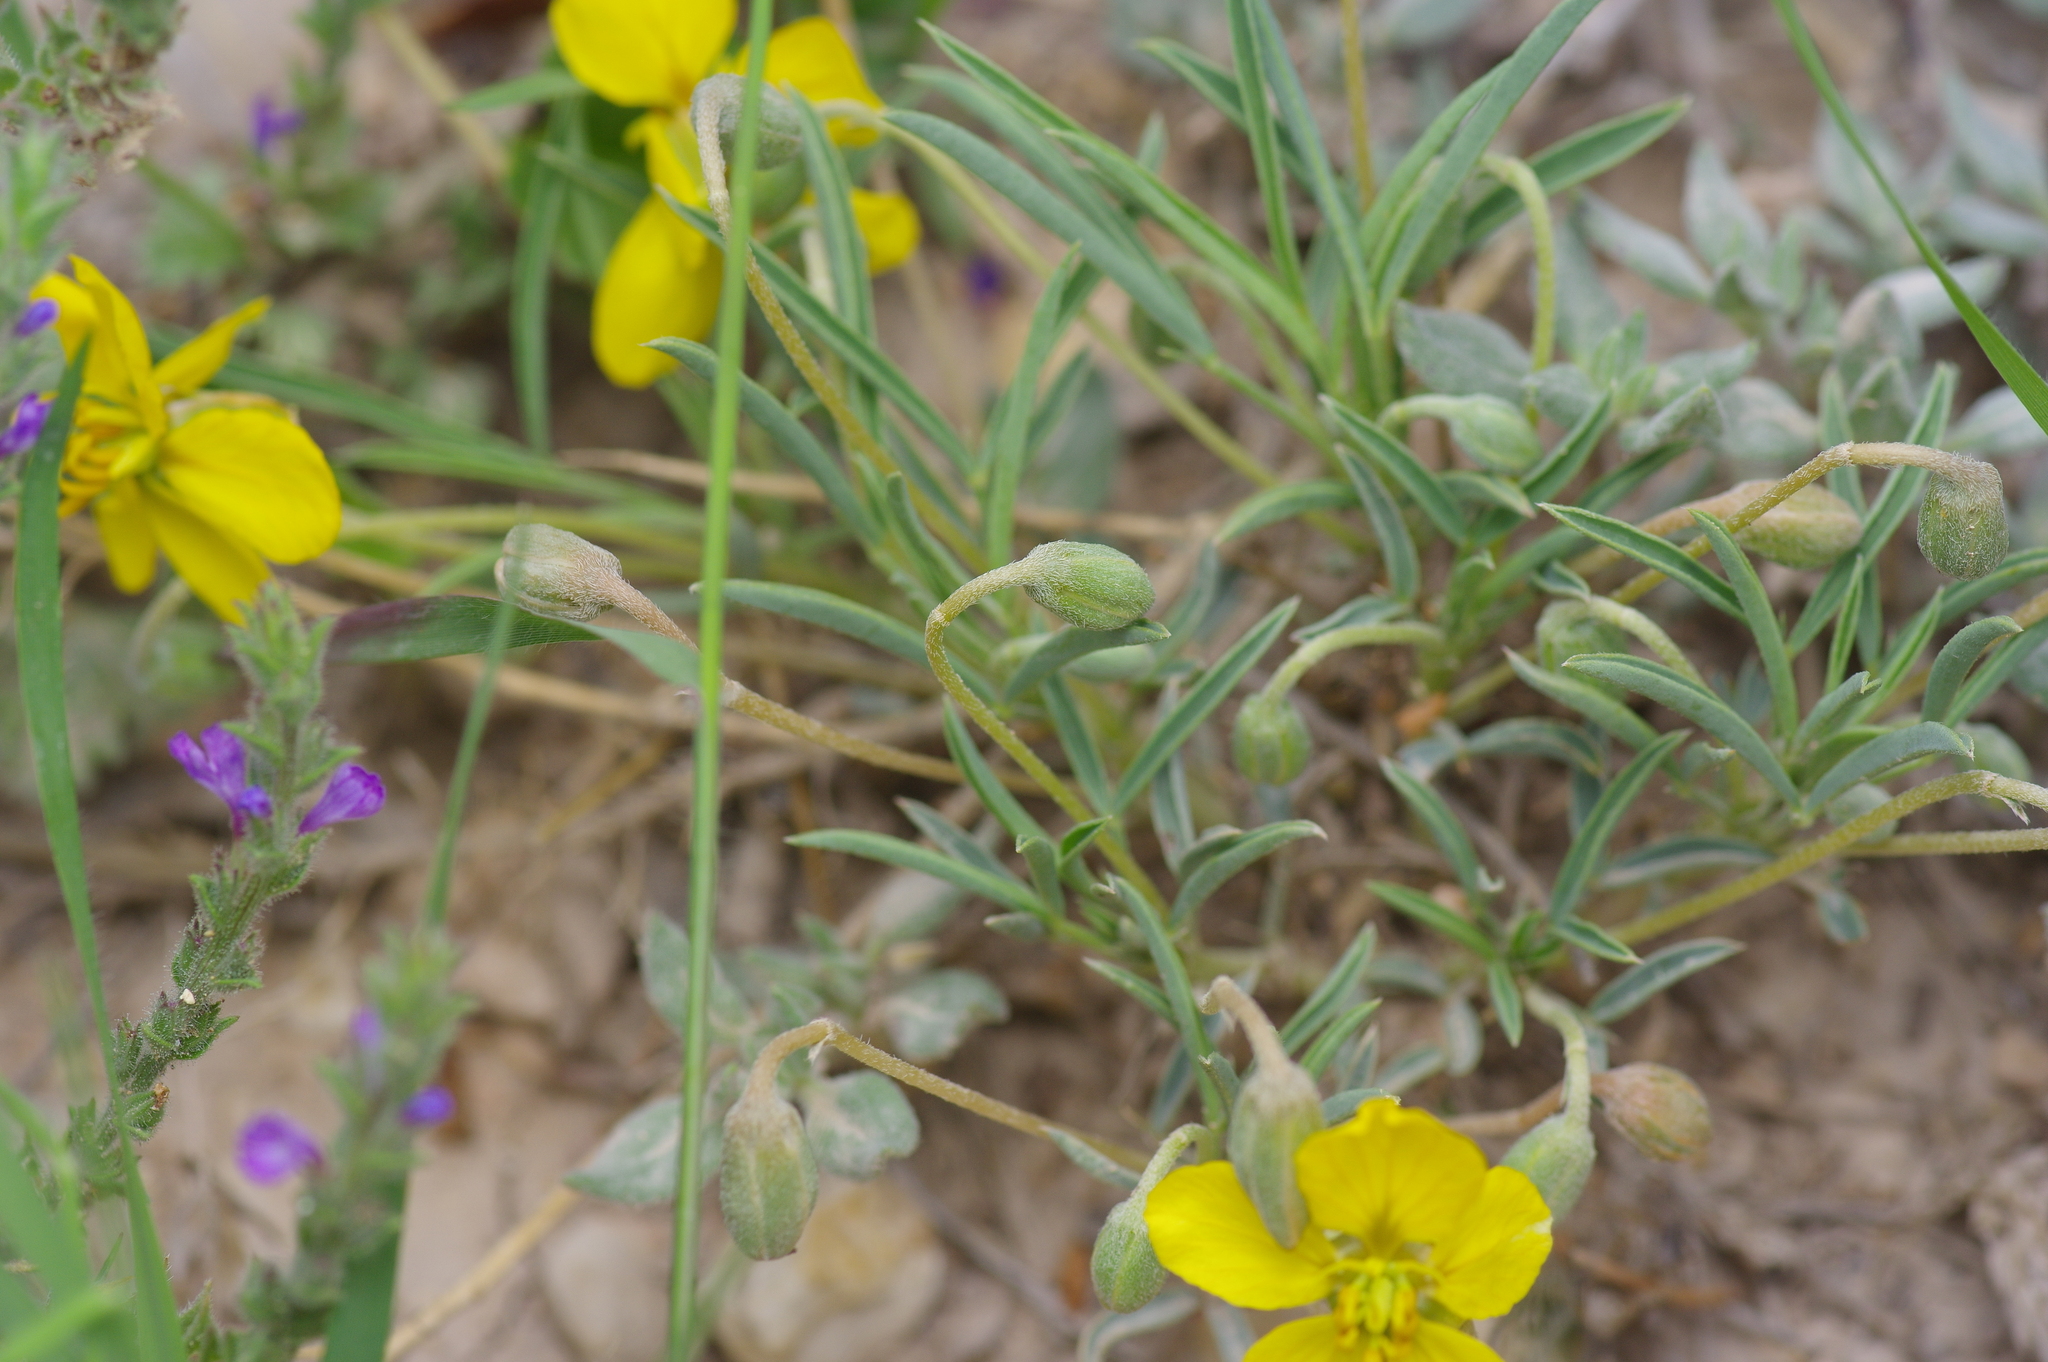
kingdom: Plantae
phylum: Tracheophyta
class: Magnoliopsida
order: Fabales
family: Fabaceae
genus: Senna
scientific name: Senna pumilio
